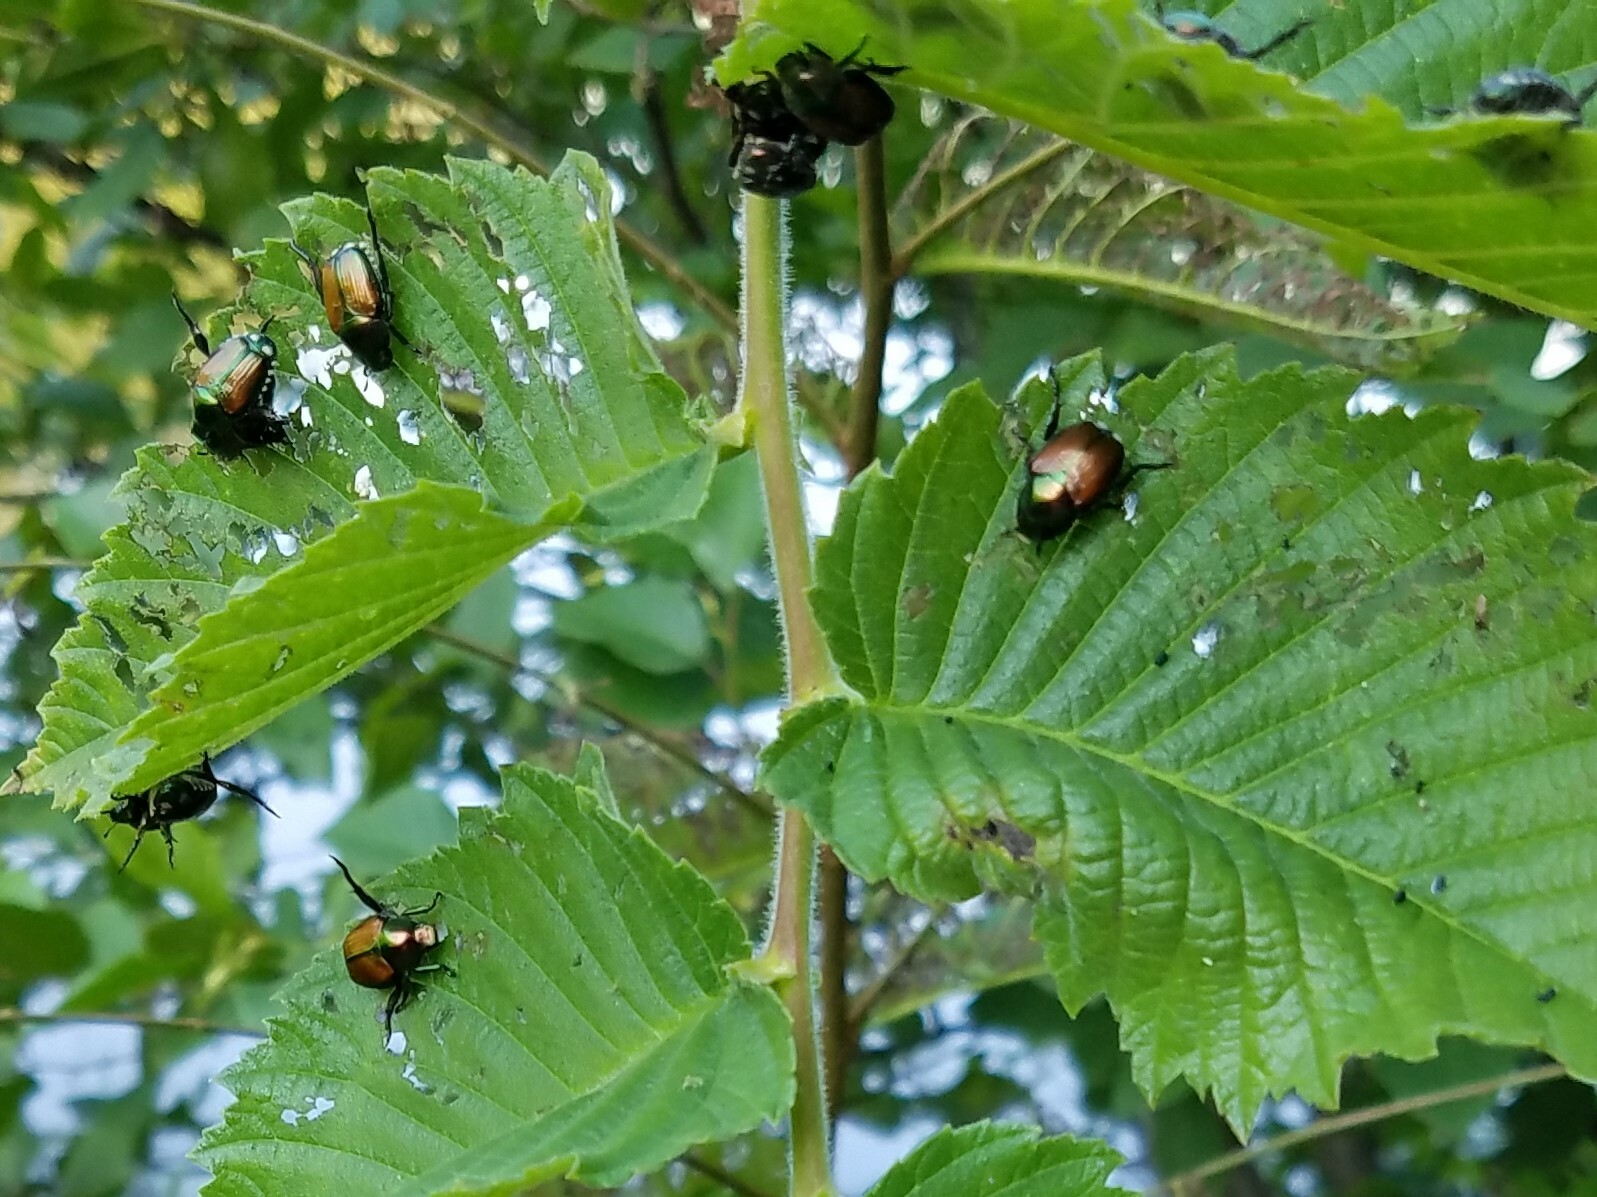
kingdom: Animalia
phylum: Arthropoda
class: Insecta
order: Coleoptera
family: Scarabaeidae
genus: Popillia
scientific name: Popillia japonica
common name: Japanese beetle
